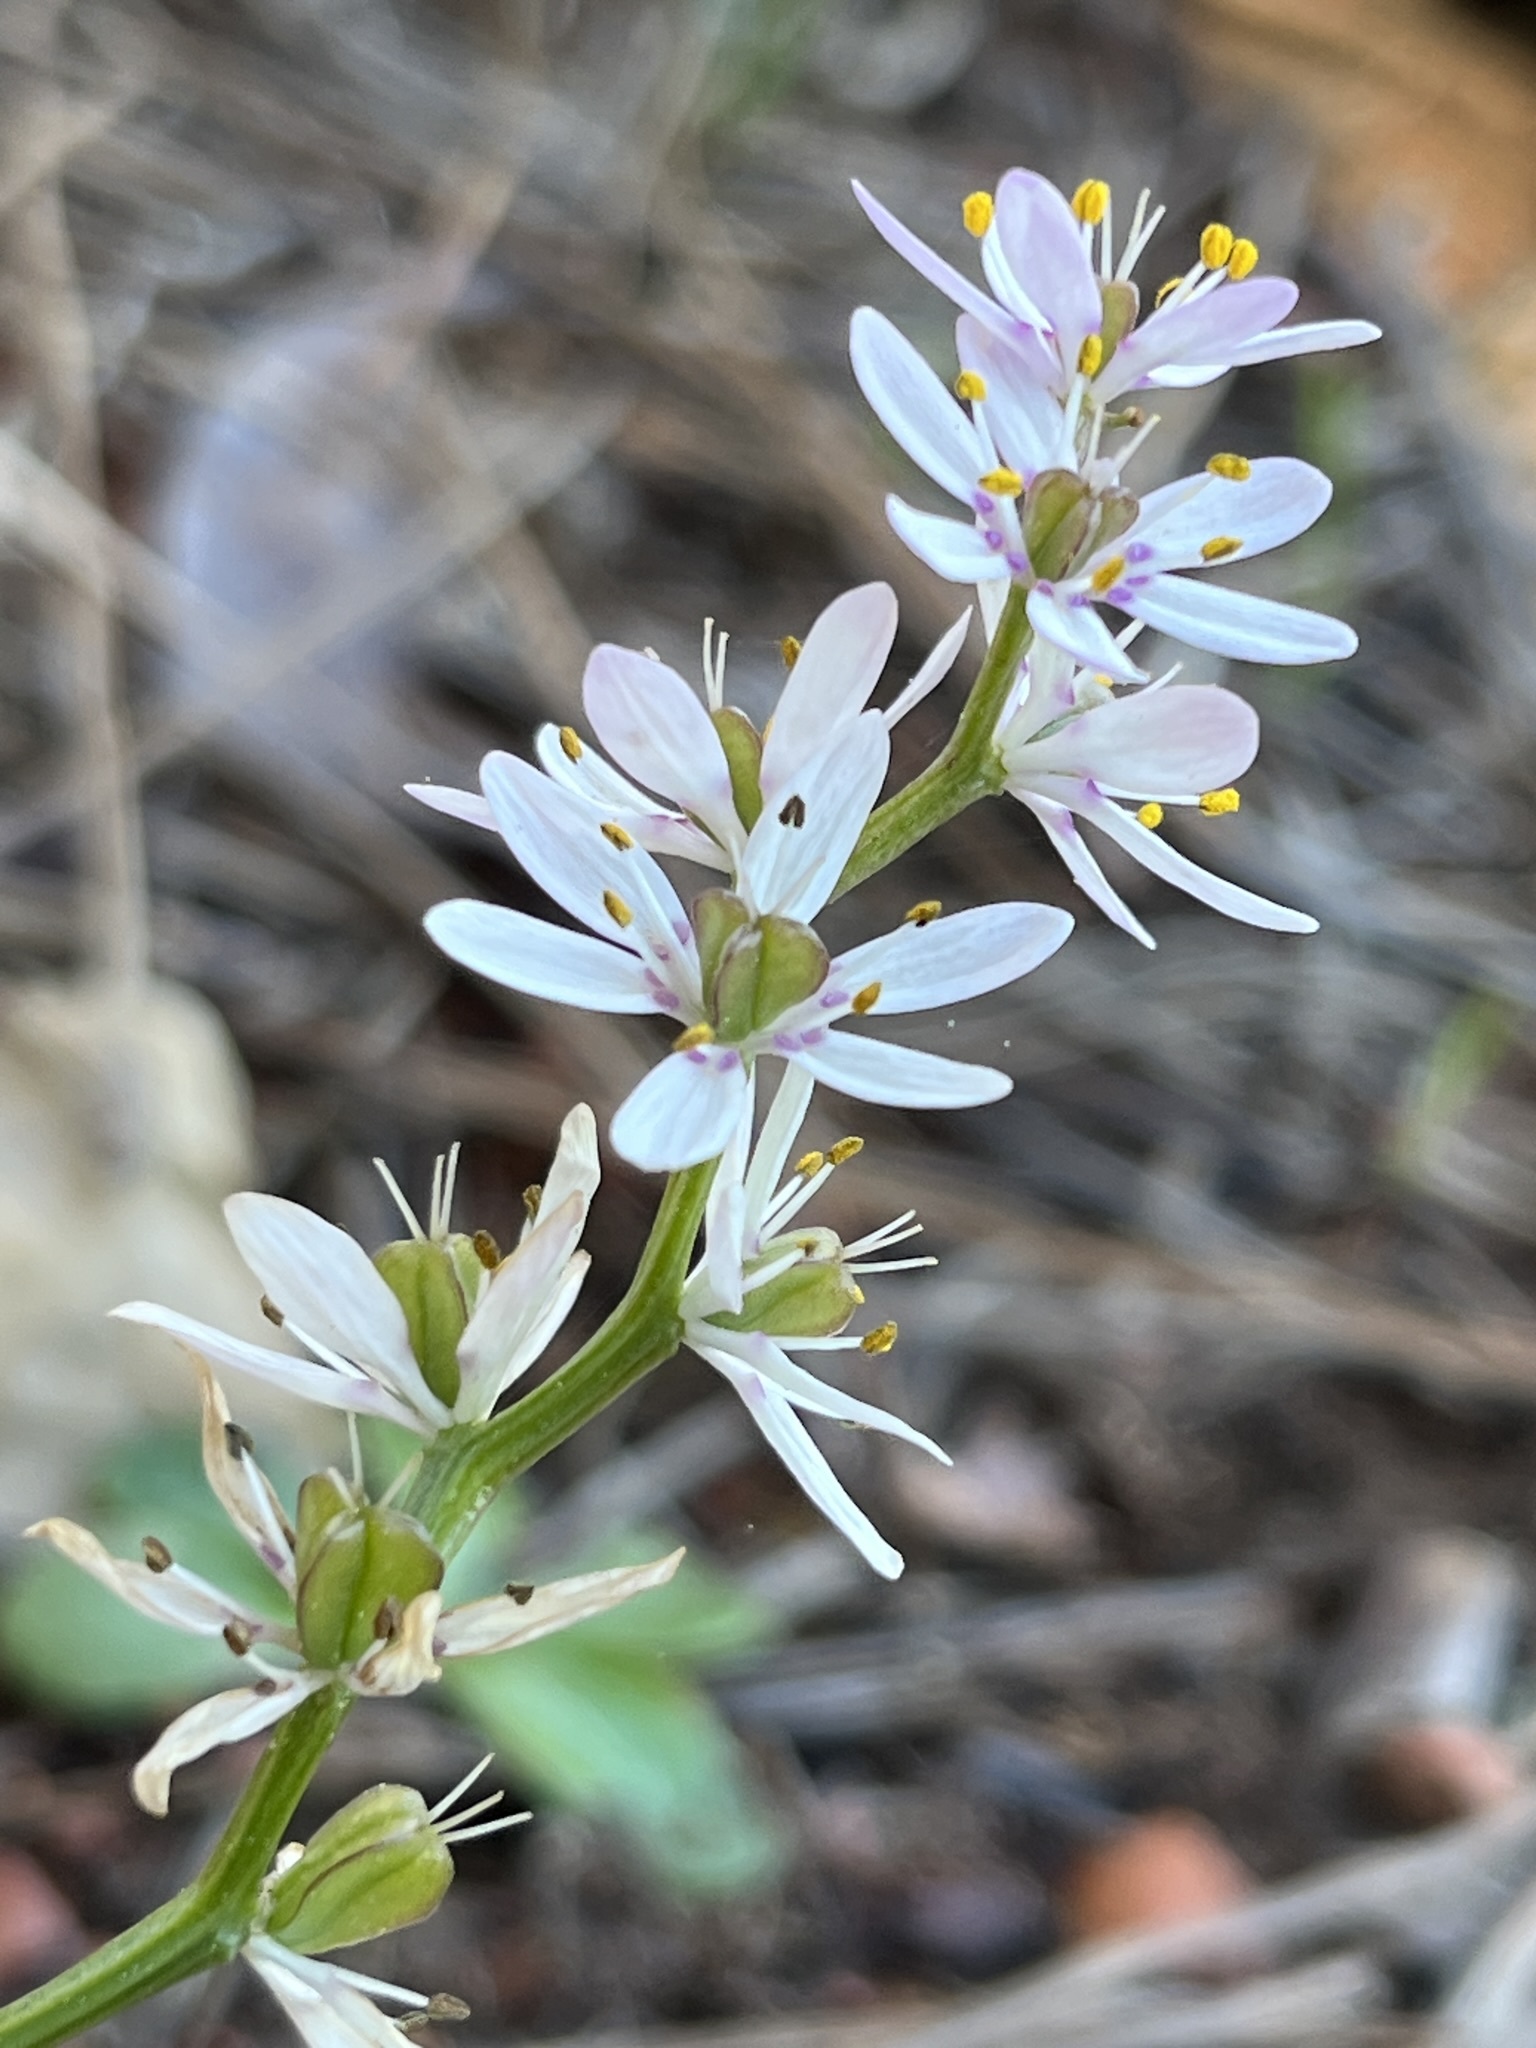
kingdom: Plantae
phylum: Tracheophyta
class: Liliopsida
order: Liliales
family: Colchicaceae
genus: Wurmbea
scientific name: Wurmbea punctata
